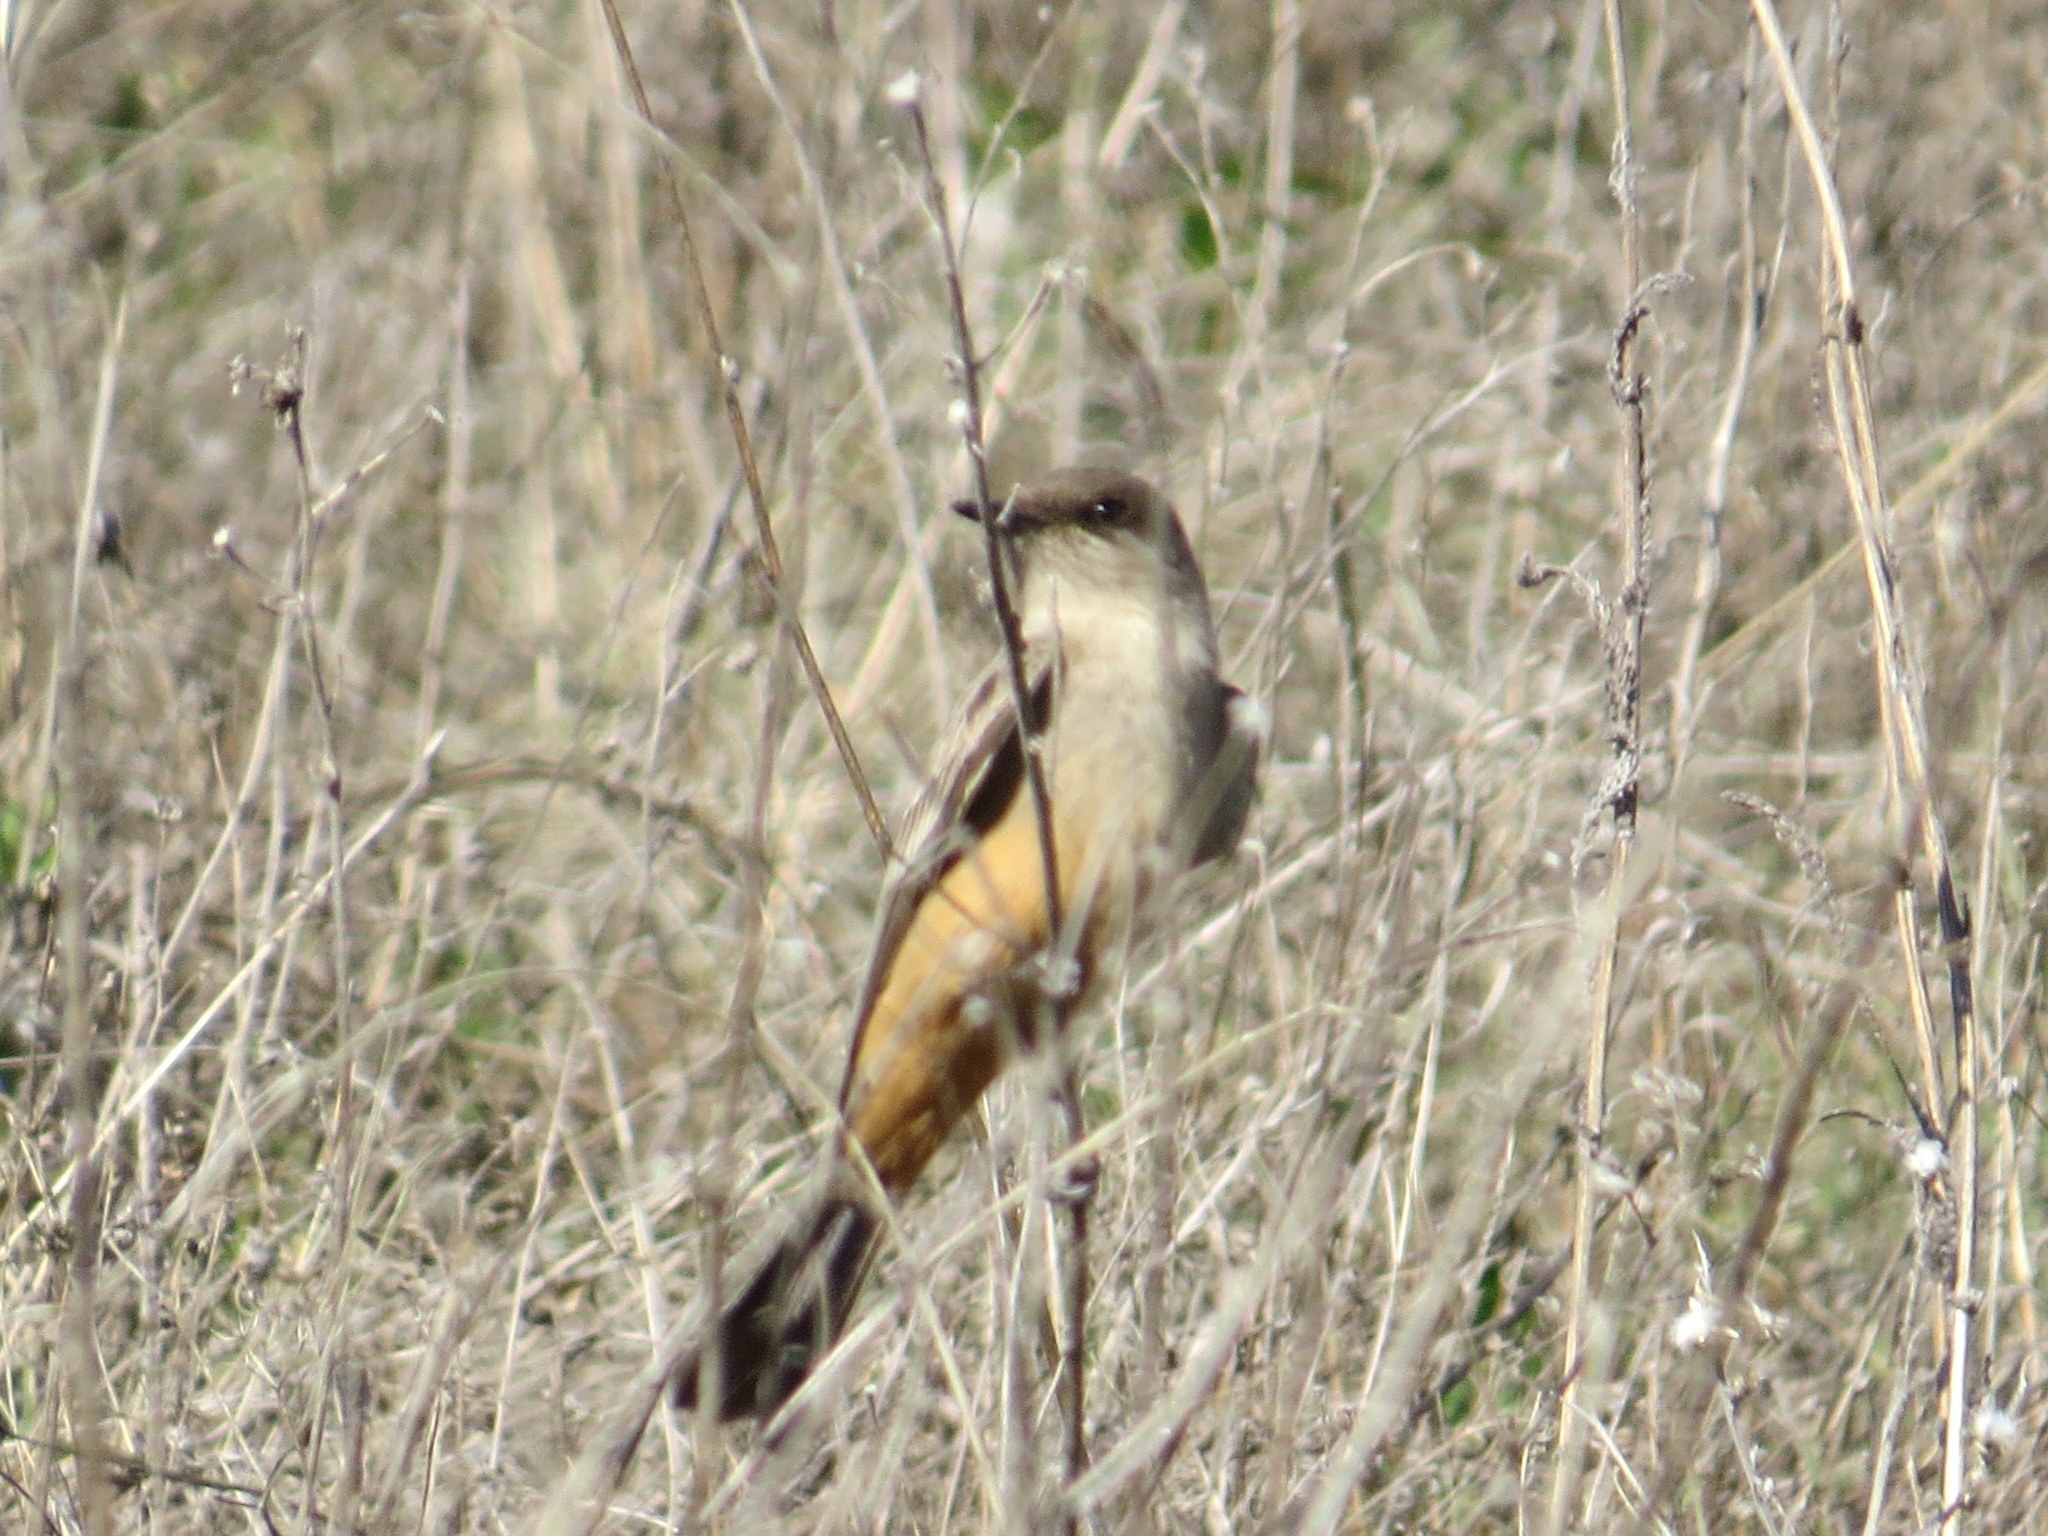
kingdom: Animalia
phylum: Chordata
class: Aves
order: Passeriformes
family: Tyrannidae
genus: Sayornis
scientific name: Sayornis saya
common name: Say's phoebe
